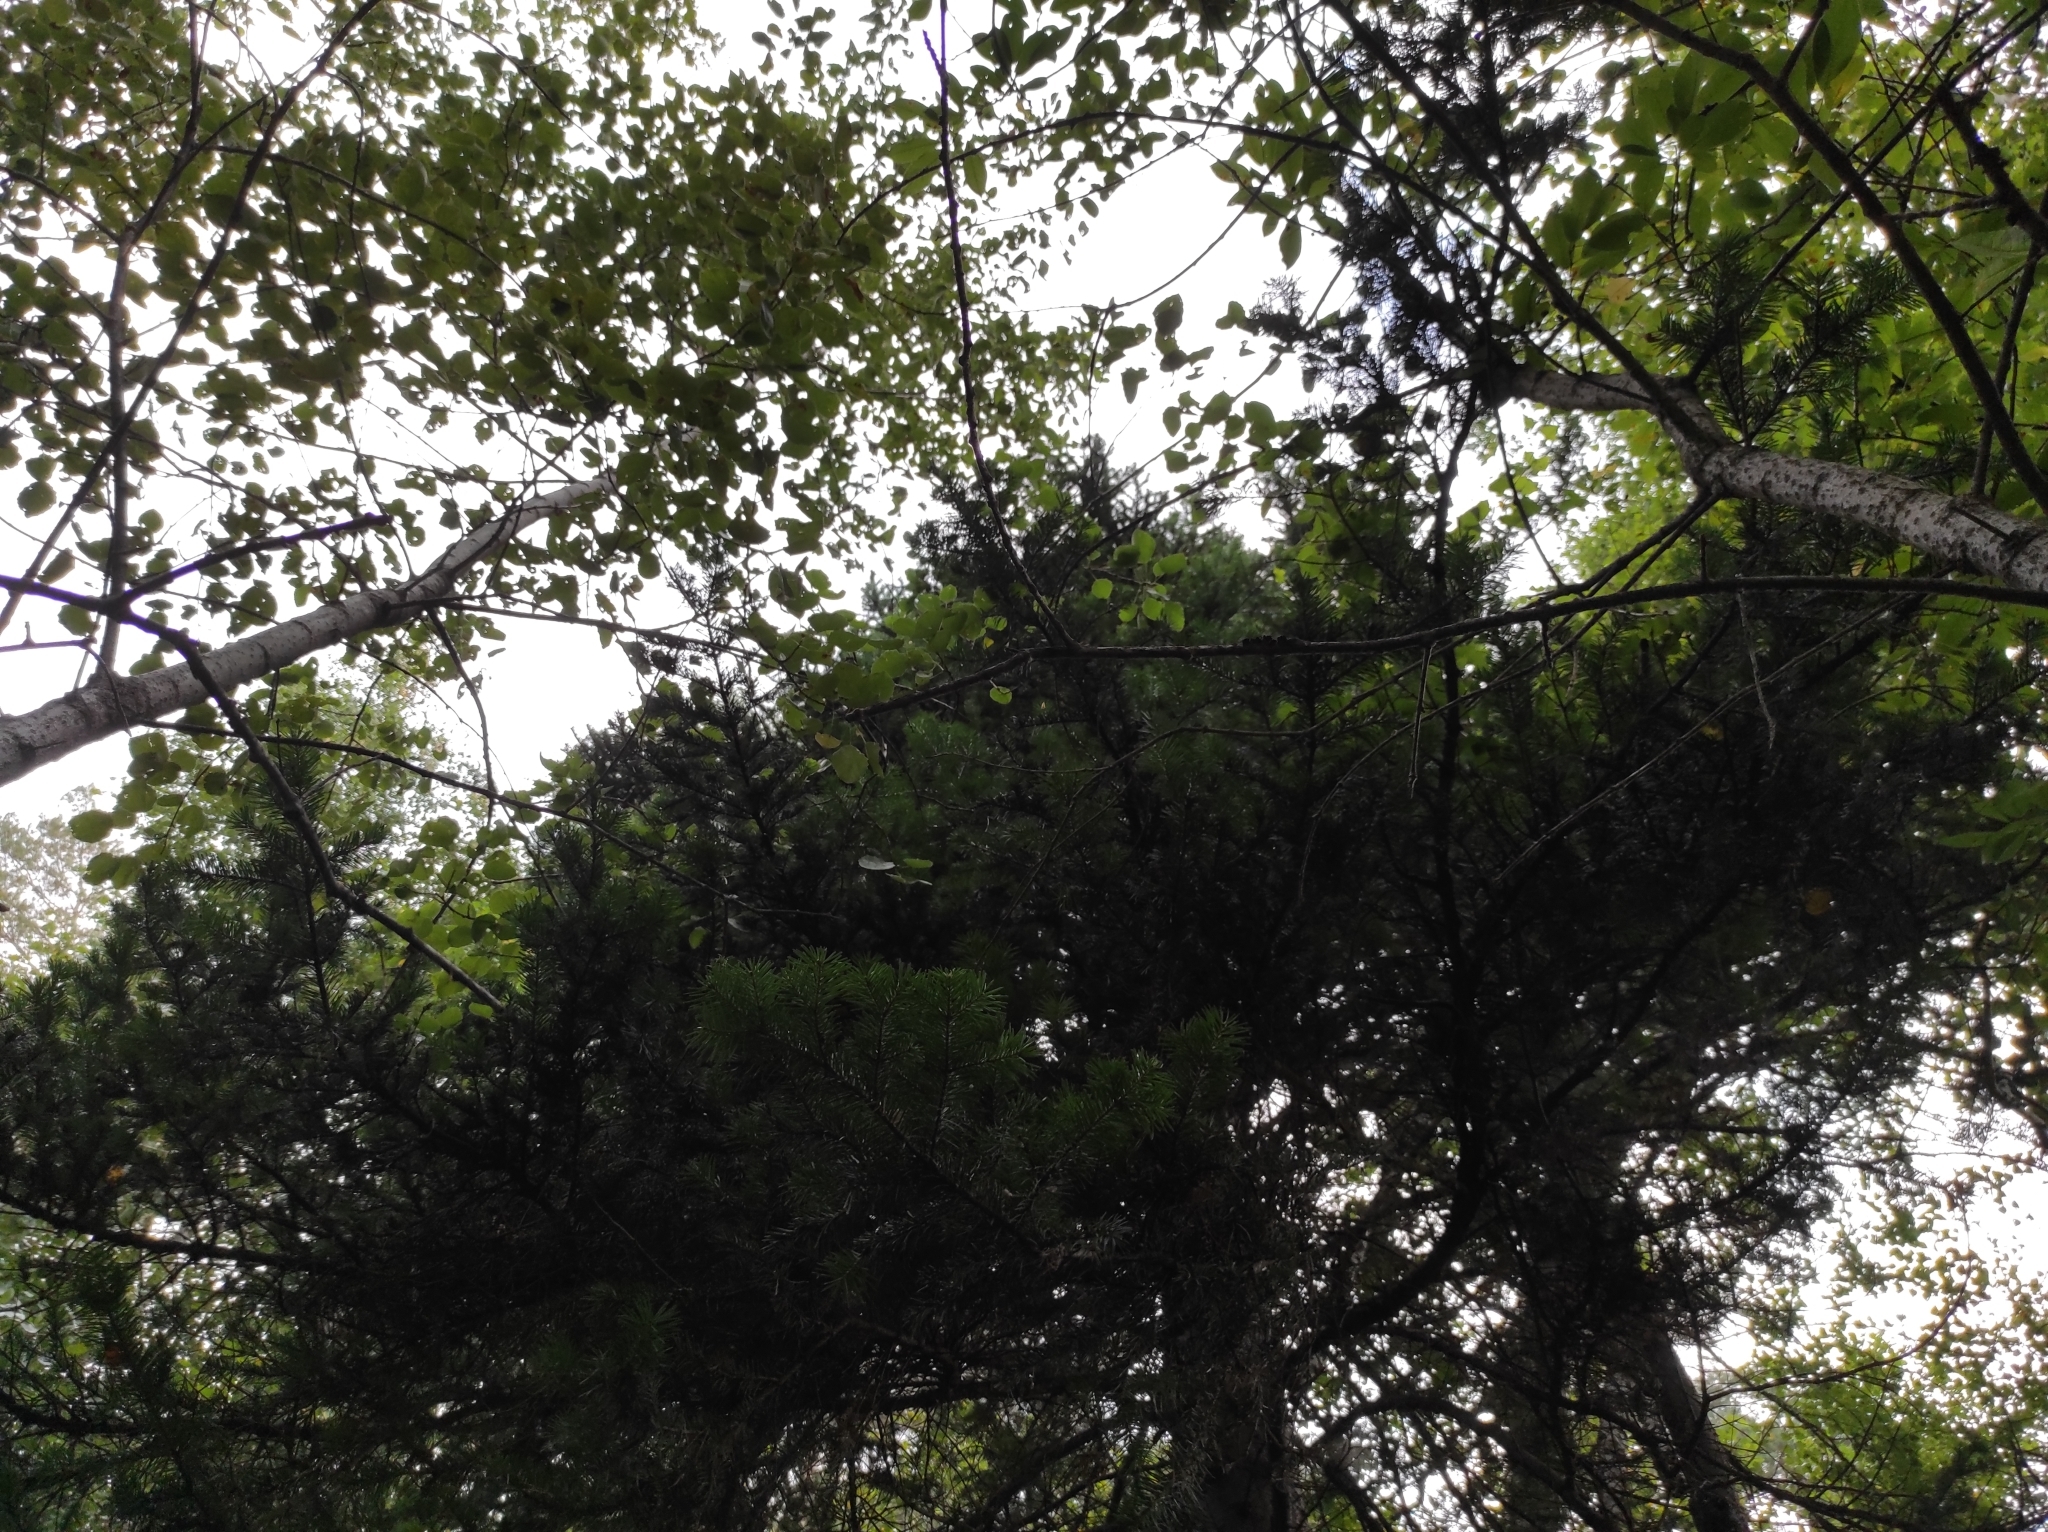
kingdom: Plantae
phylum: Tracheophyta
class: Pinopsida
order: Pinales
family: Pinaceae
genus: Abies
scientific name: Abies sibirica
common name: Siberian fir
